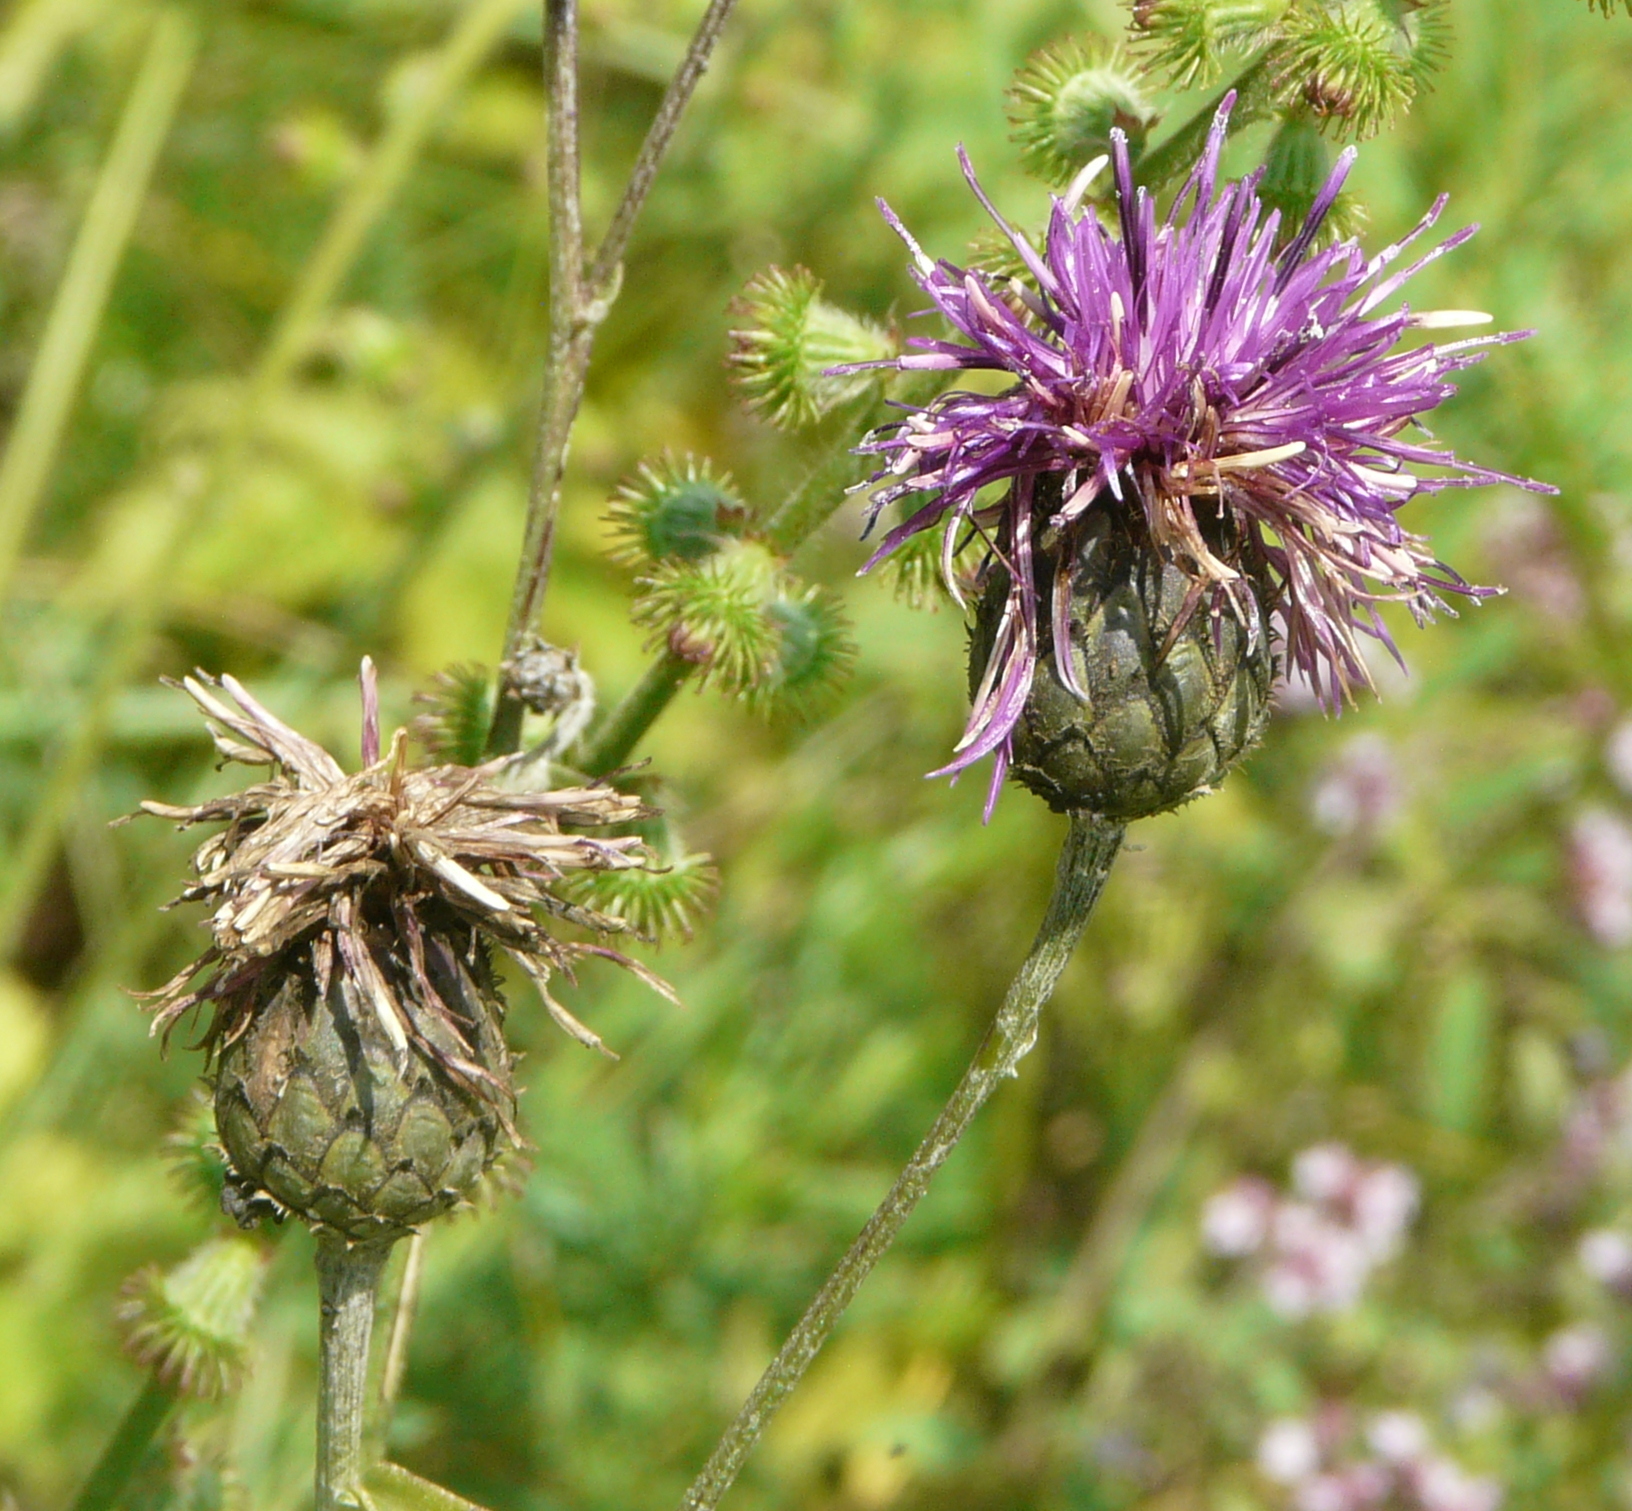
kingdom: Plantae
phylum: Tracheophyta
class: Magnoliopsida
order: Asterales
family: Asteraceae
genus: Centaurea
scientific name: Centaurea scabiosa
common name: Greater knapweed
